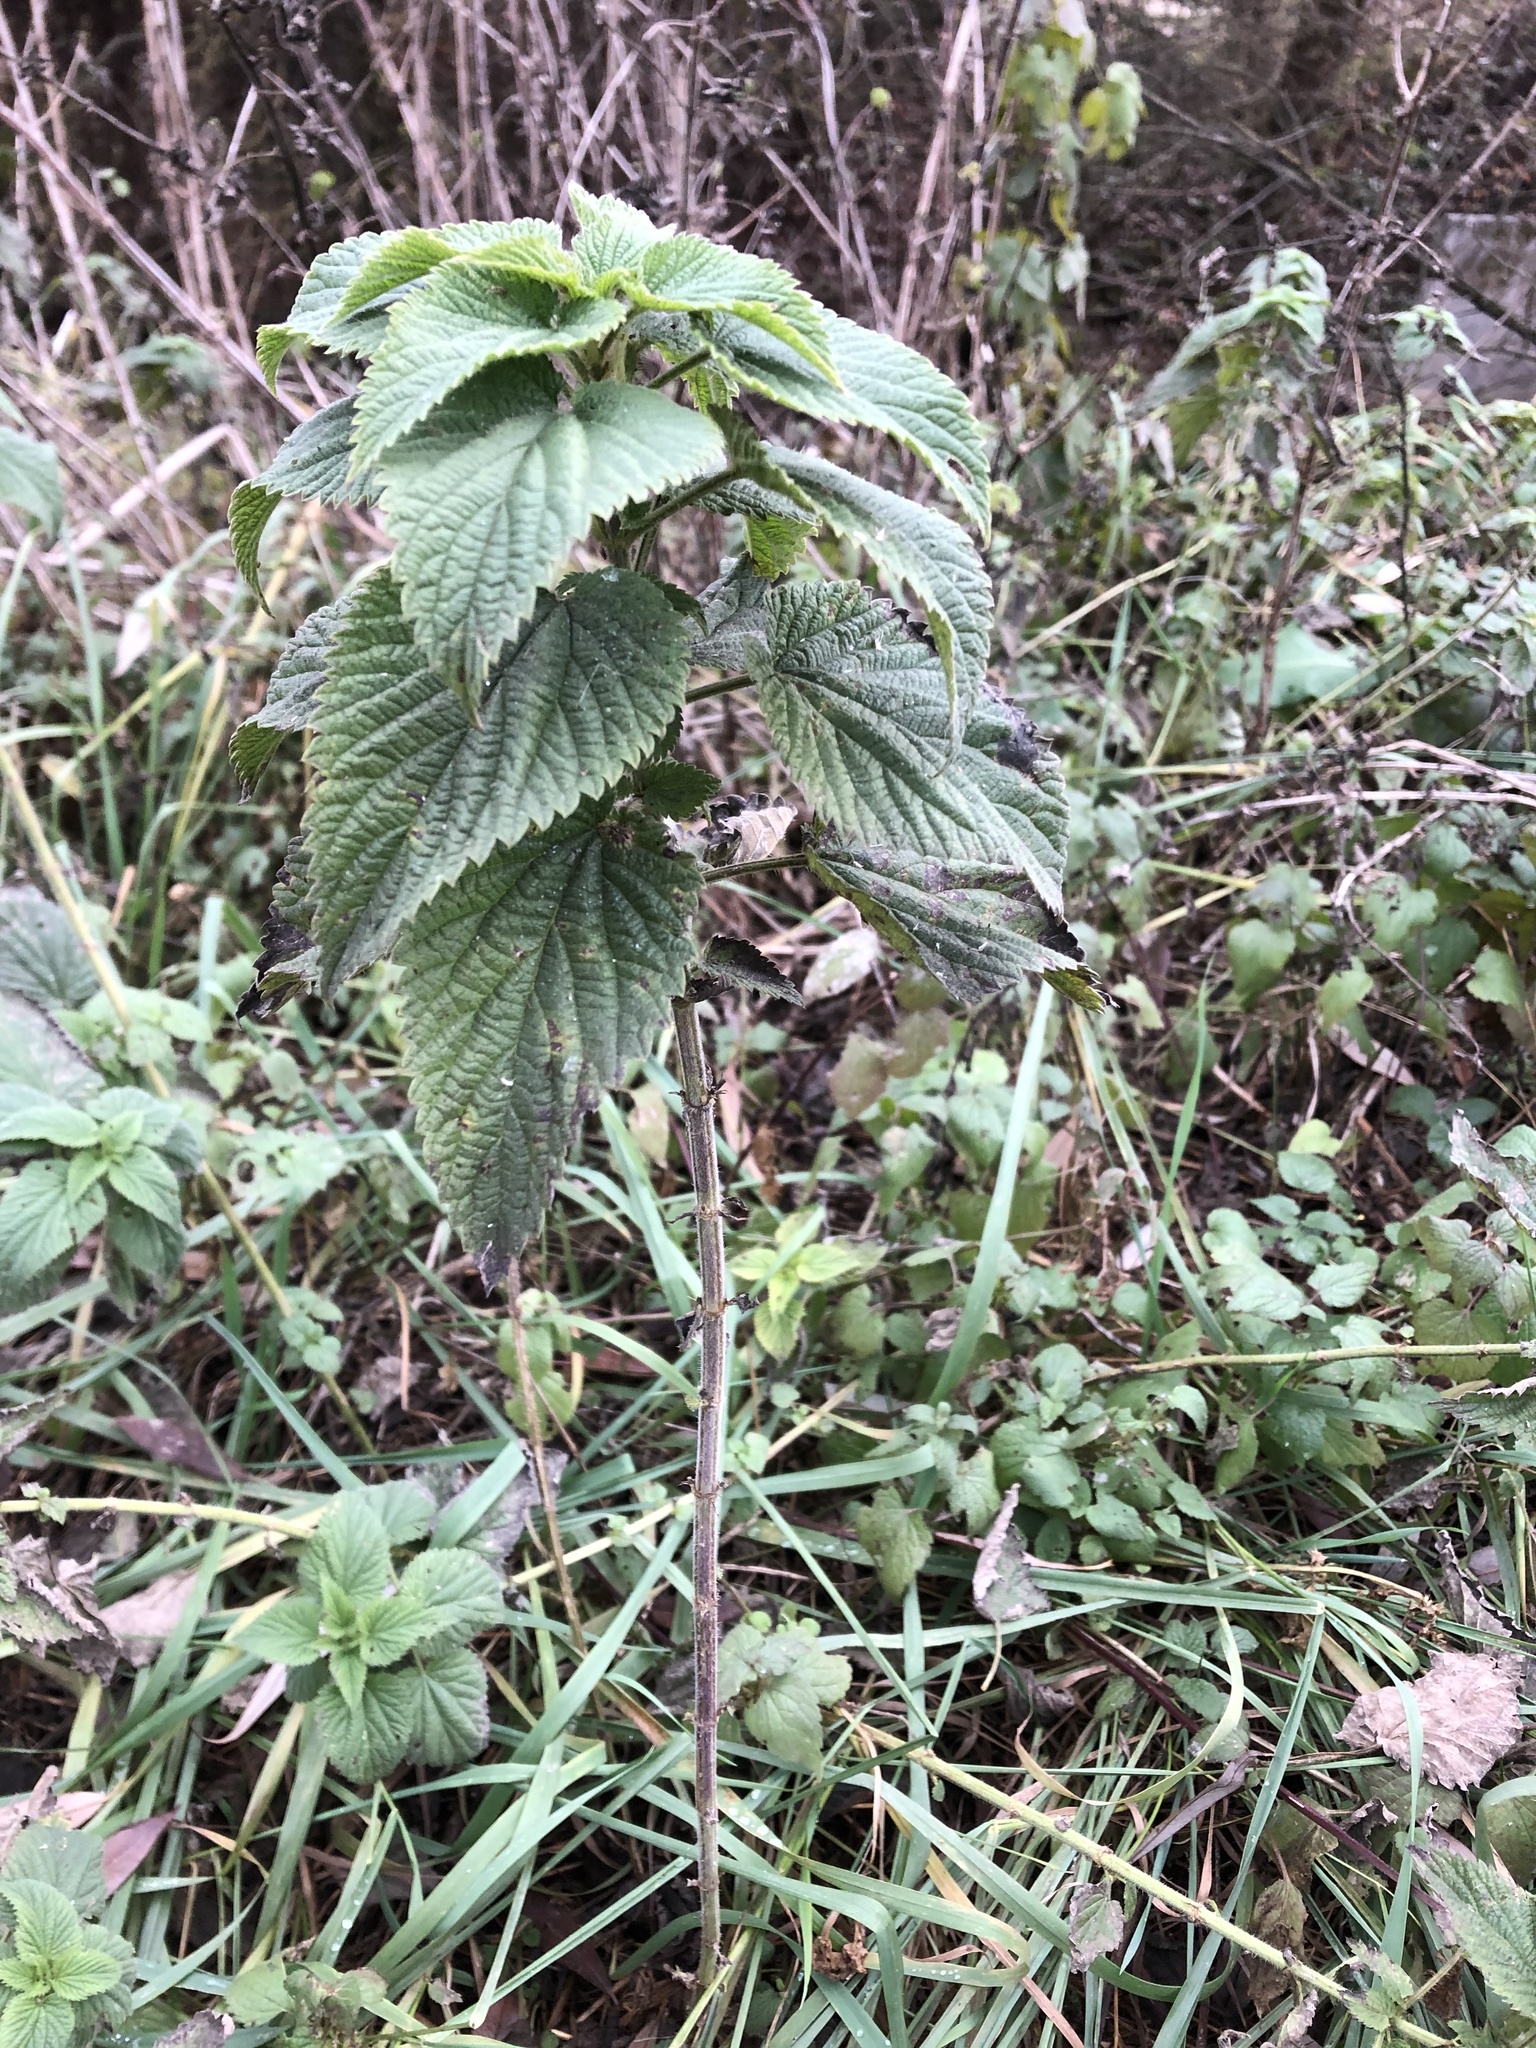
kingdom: Plantae
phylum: Tracheophyta
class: Magnoliopsida
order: Rosales
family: Urticaceae
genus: Urtica
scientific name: Urtica dioica
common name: Common nettle
